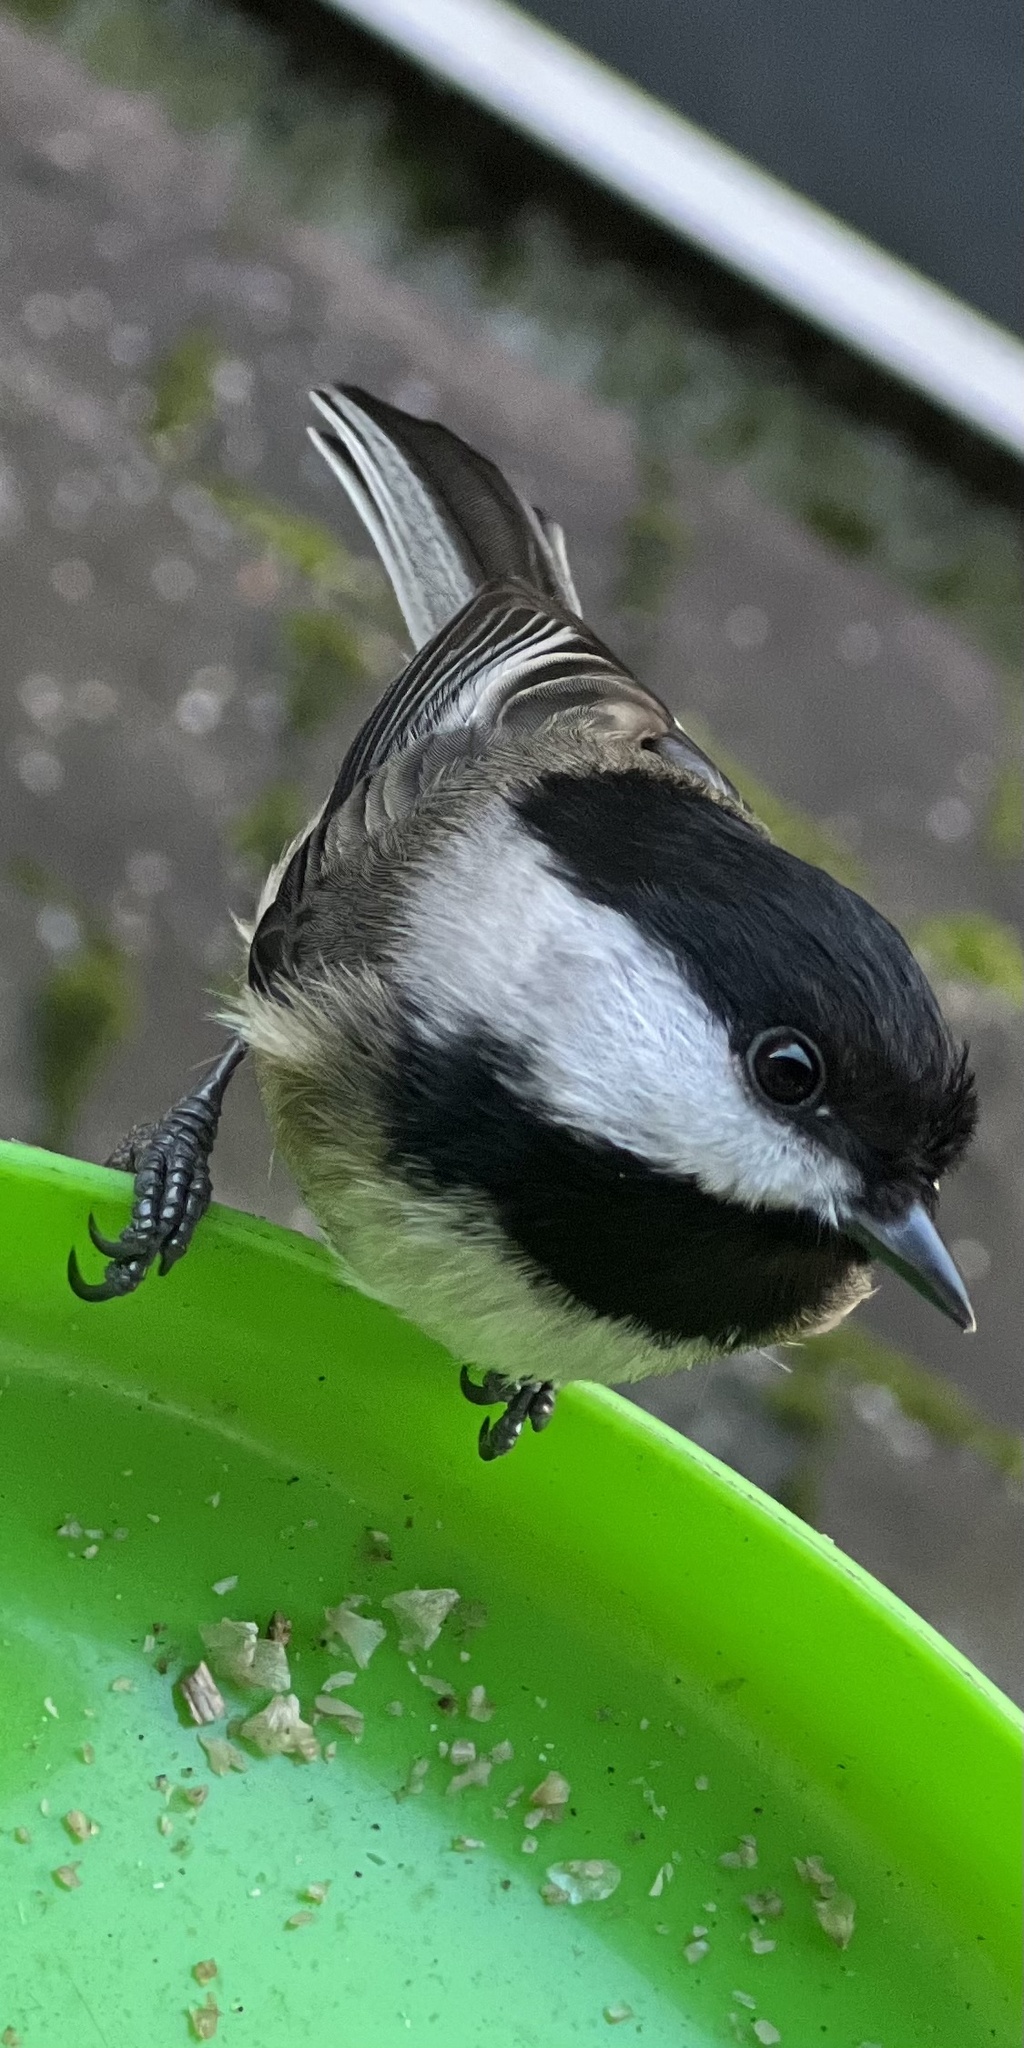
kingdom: Animalia
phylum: Chordata
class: Aves
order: Passeriformes
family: Paridae
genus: Poecile
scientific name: Poecile atricapillus
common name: Black-capped chickadee
